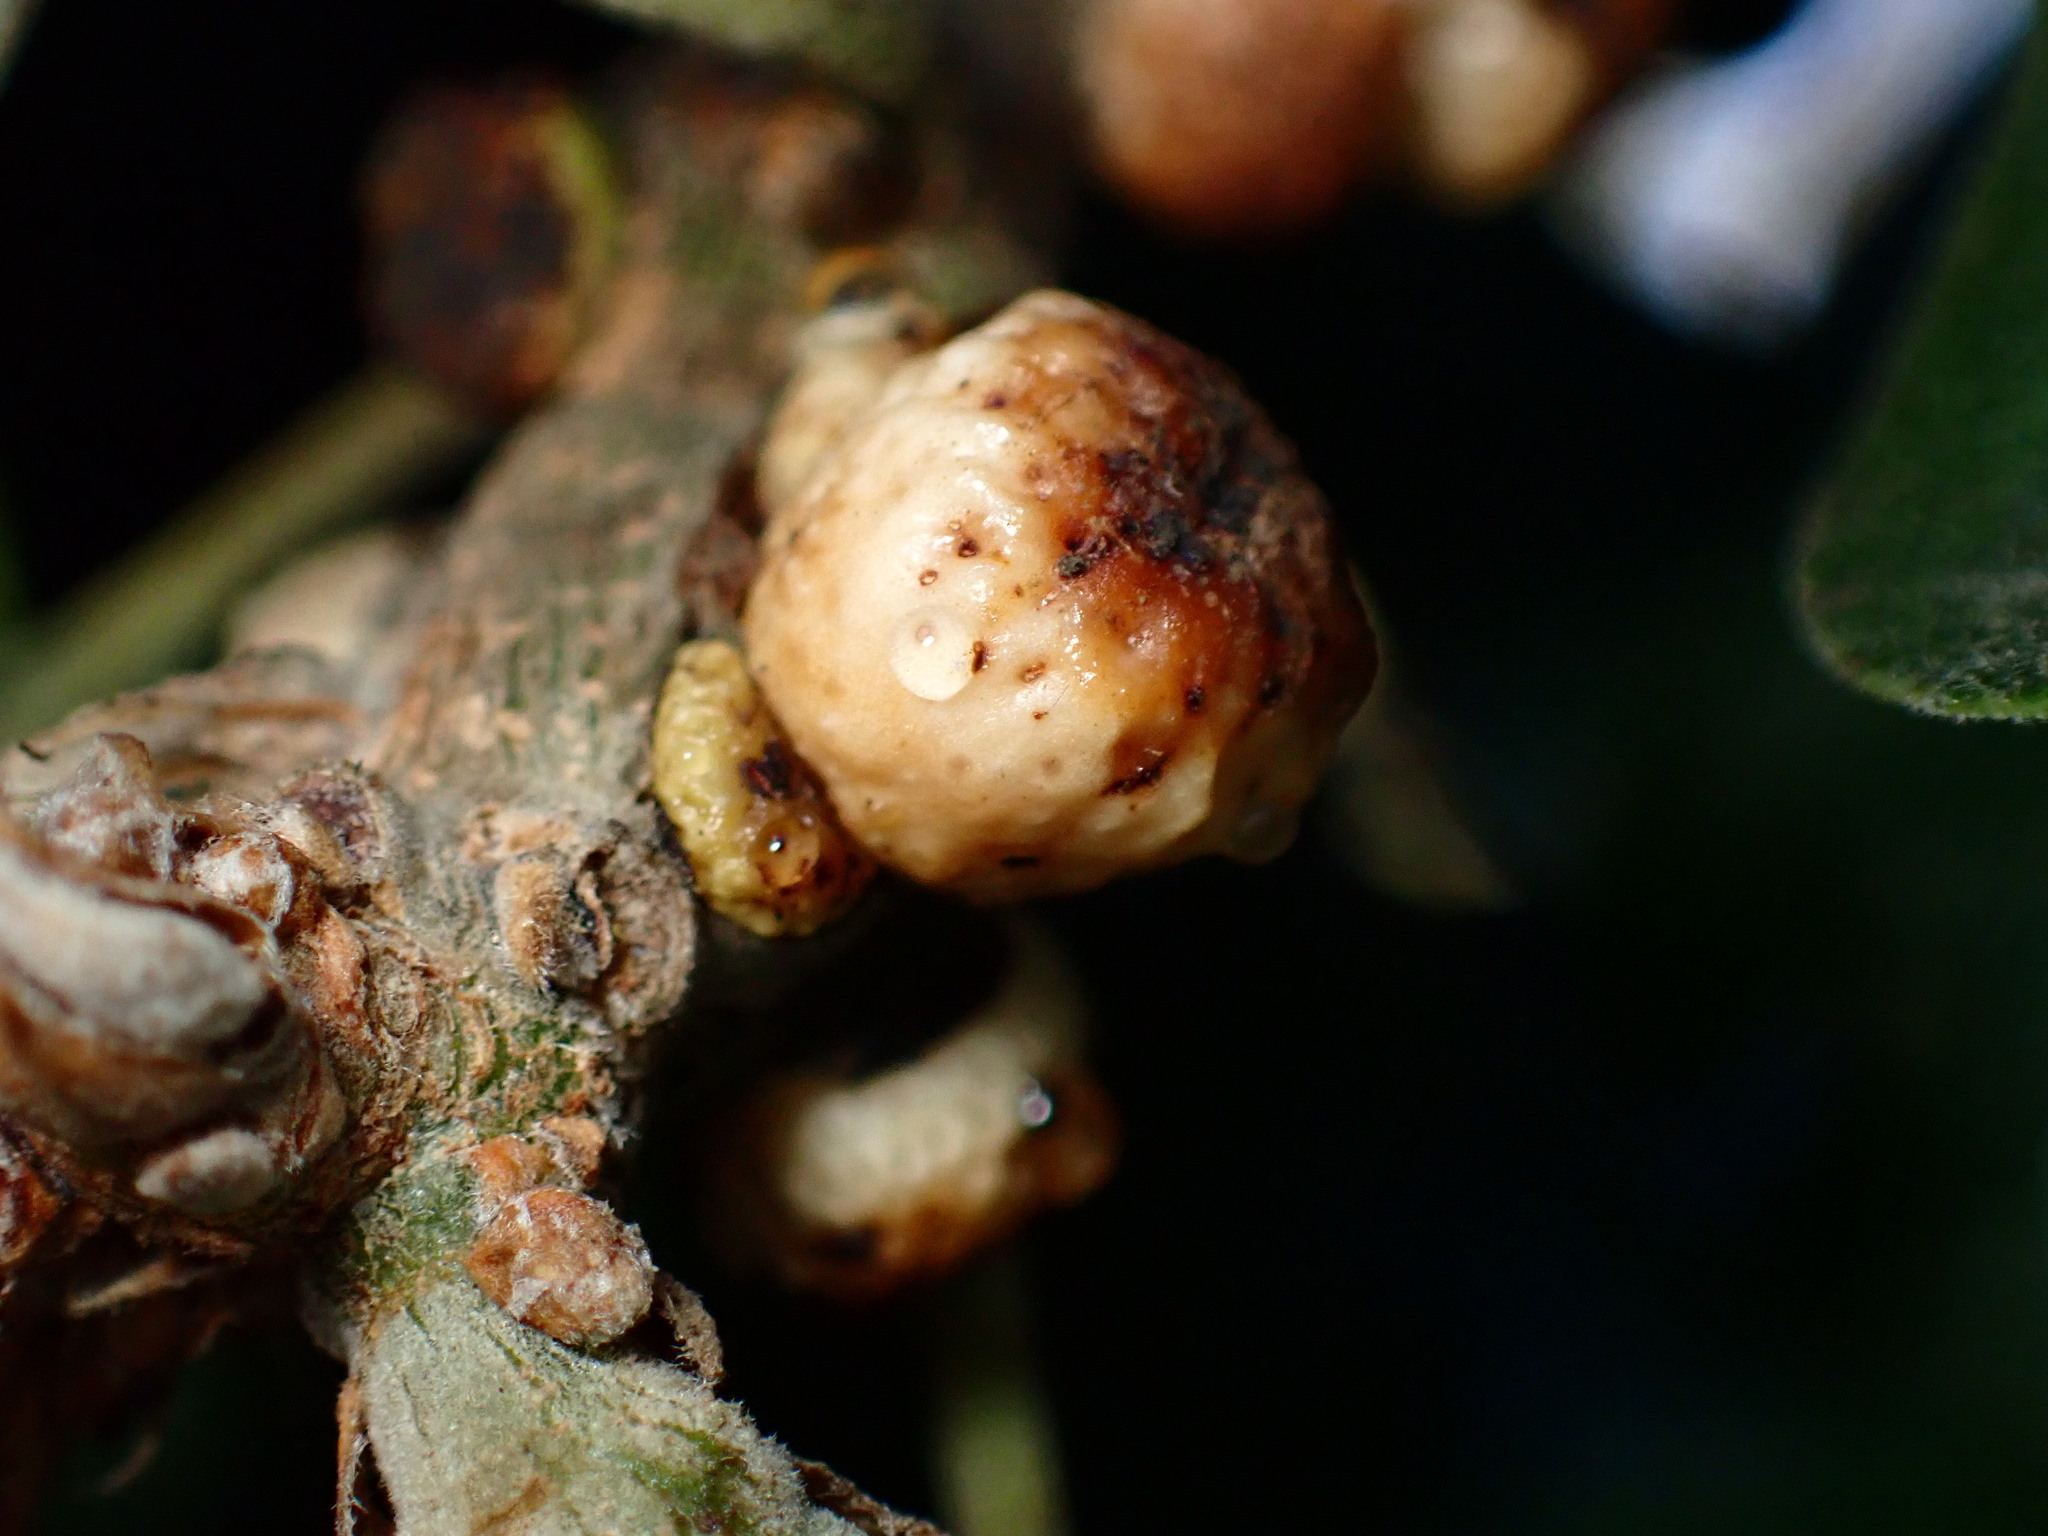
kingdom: Animalia
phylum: Arthropoda
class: Insecta
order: Hymenoptera
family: Cynipidae
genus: Disholcaspis
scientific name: Disholcaspis
